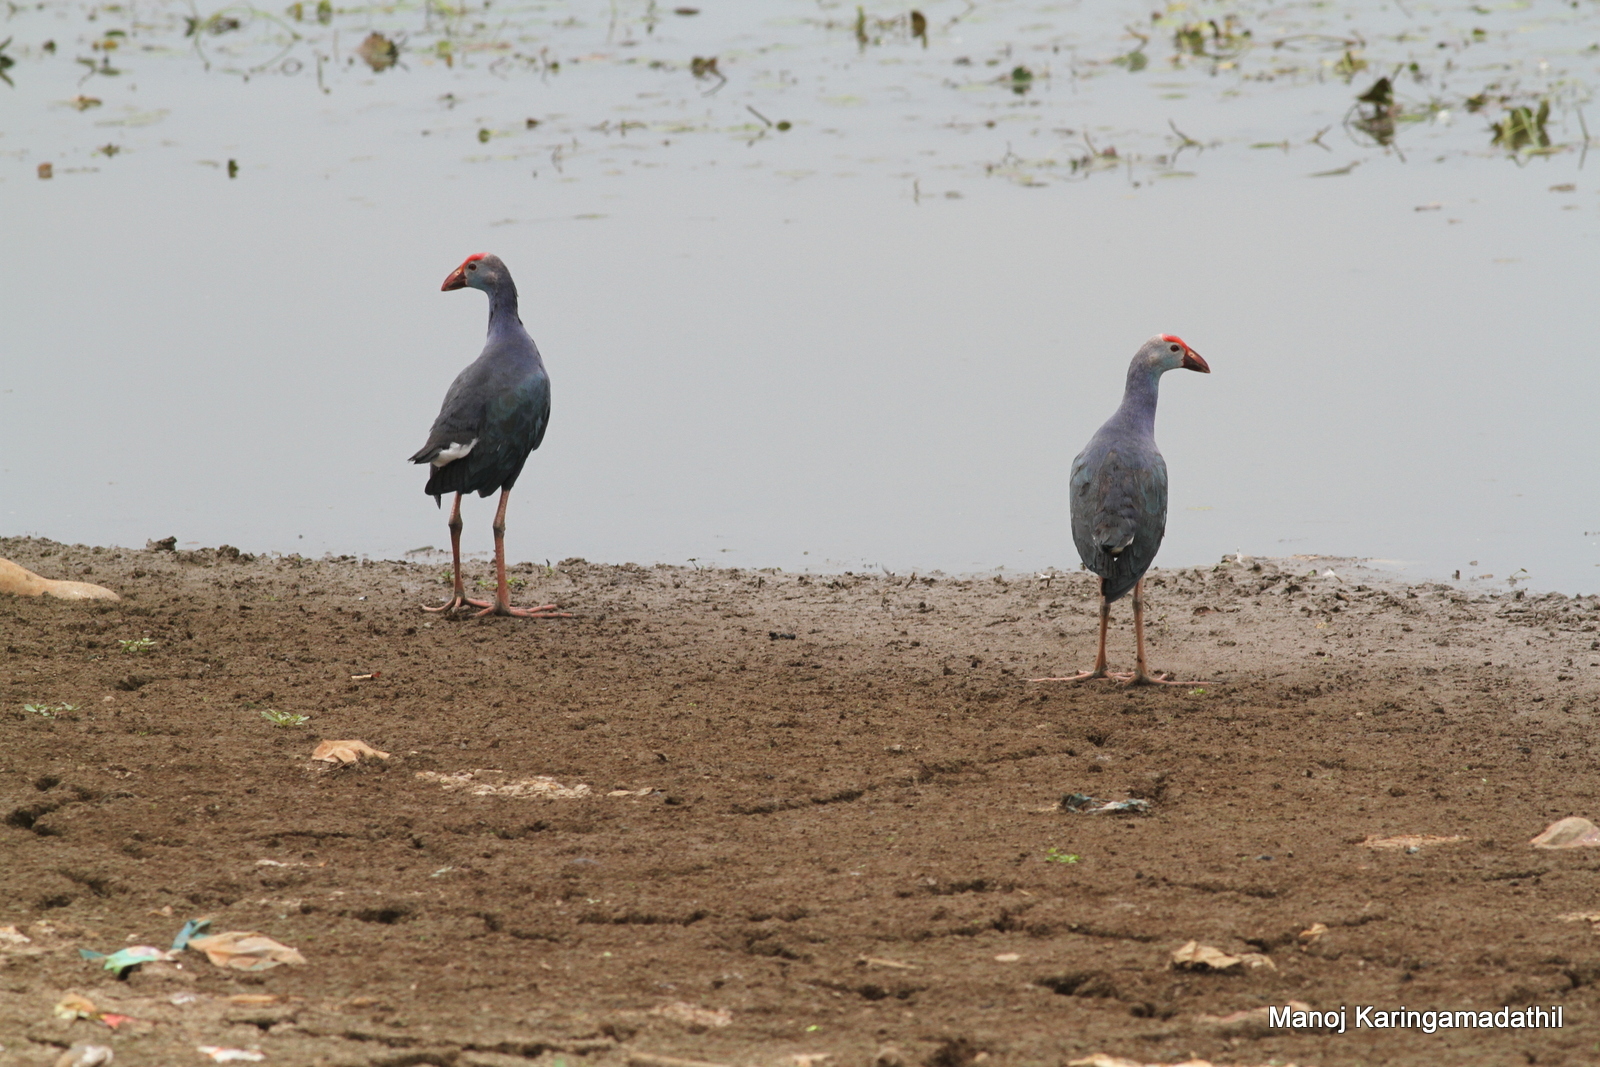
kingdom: Animalia
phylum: Chordata
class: Aves
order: Gruiformes
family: Rallidae
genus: Porphyrio
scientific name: Porphyrio porphyrio
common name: Purple swamphen
